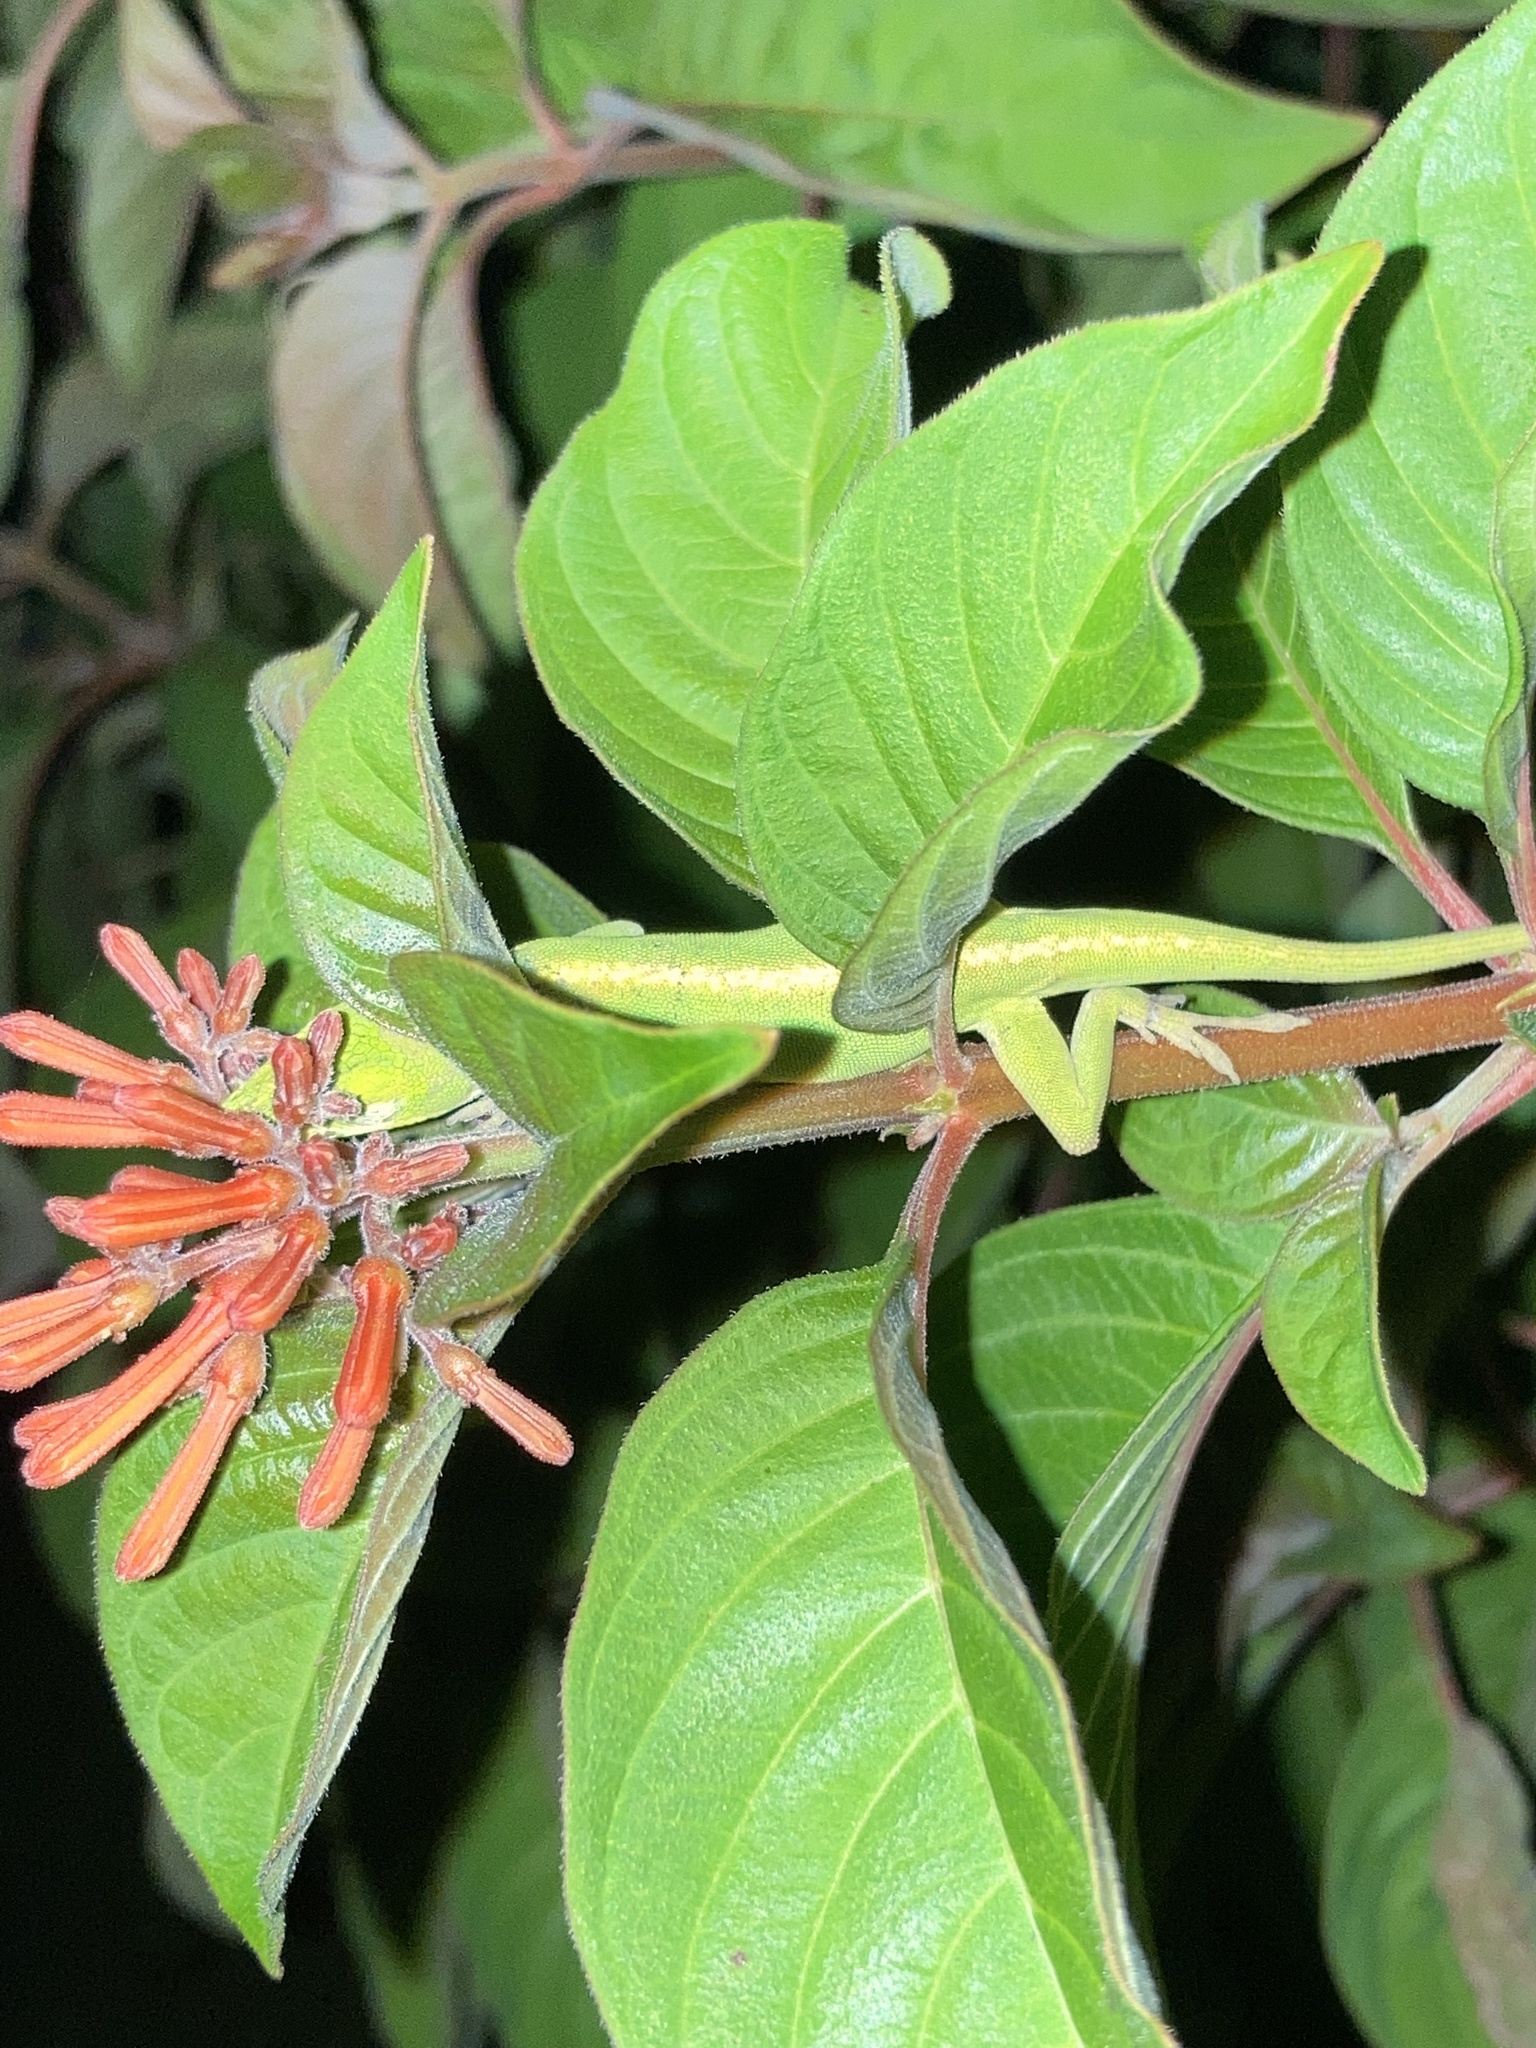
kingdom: Animalia
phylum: Chordata
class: Squamata
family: Dactyloidae
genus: Anolis
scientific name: Anolis carolinensis
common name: Green anole
